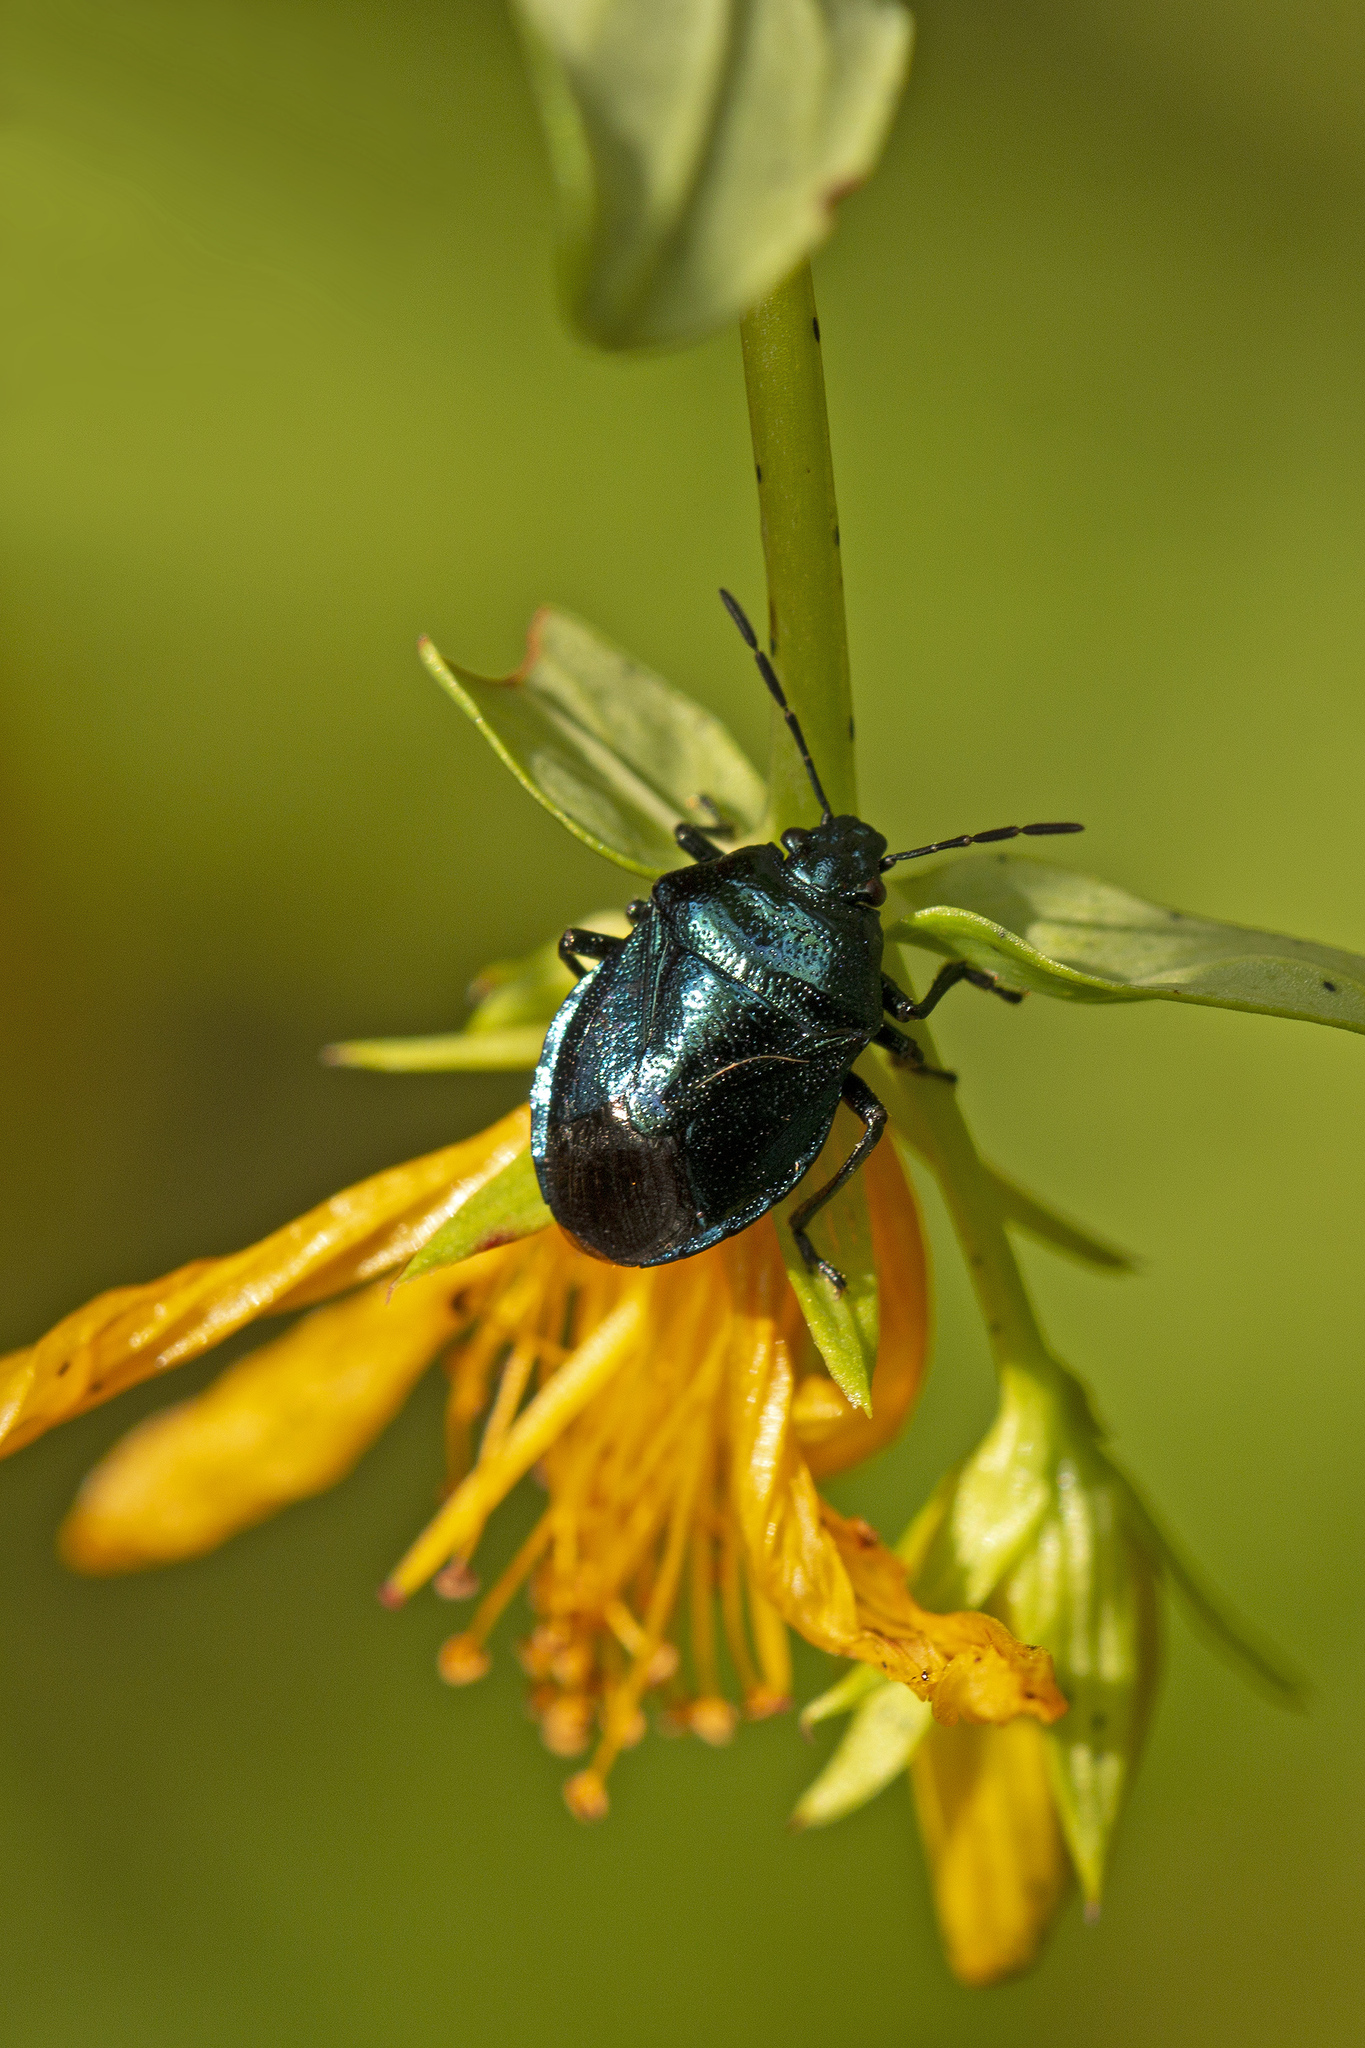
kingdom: Animalia
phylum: Arthropoda
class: Insecta
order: Hemiptera
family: Pentatomidae
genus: Zicrona
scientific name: Zicrona caerulea
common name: Blue shieldbug
